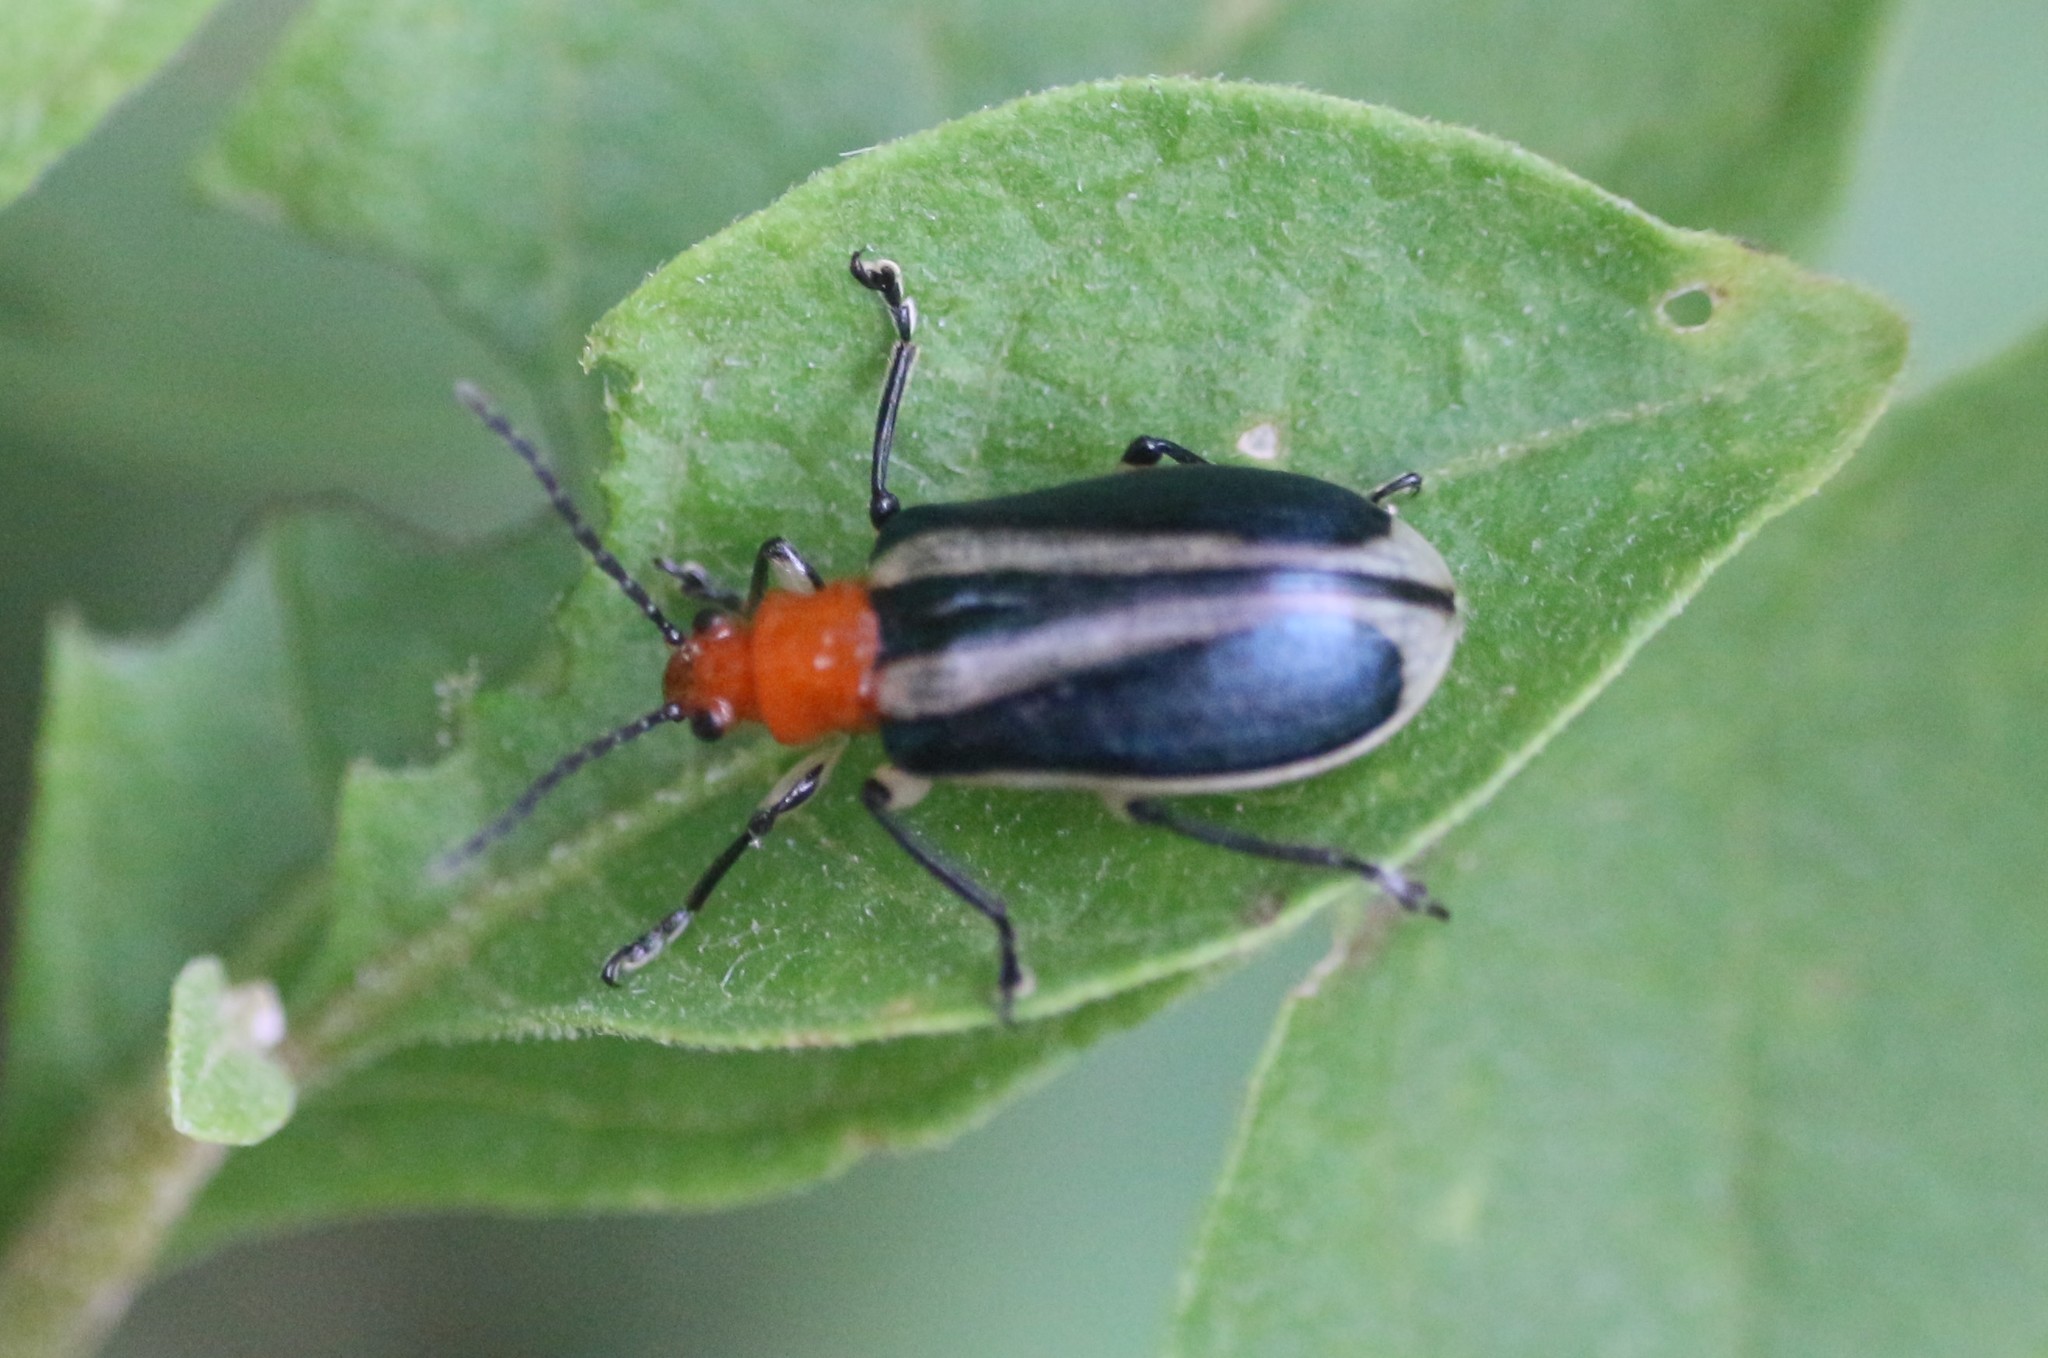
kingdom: Animalia
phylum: Arthropoda
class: Insecta
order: Coleoptera
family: Chrysomelidae
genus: Stolas
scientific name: Stolas chalybaea
